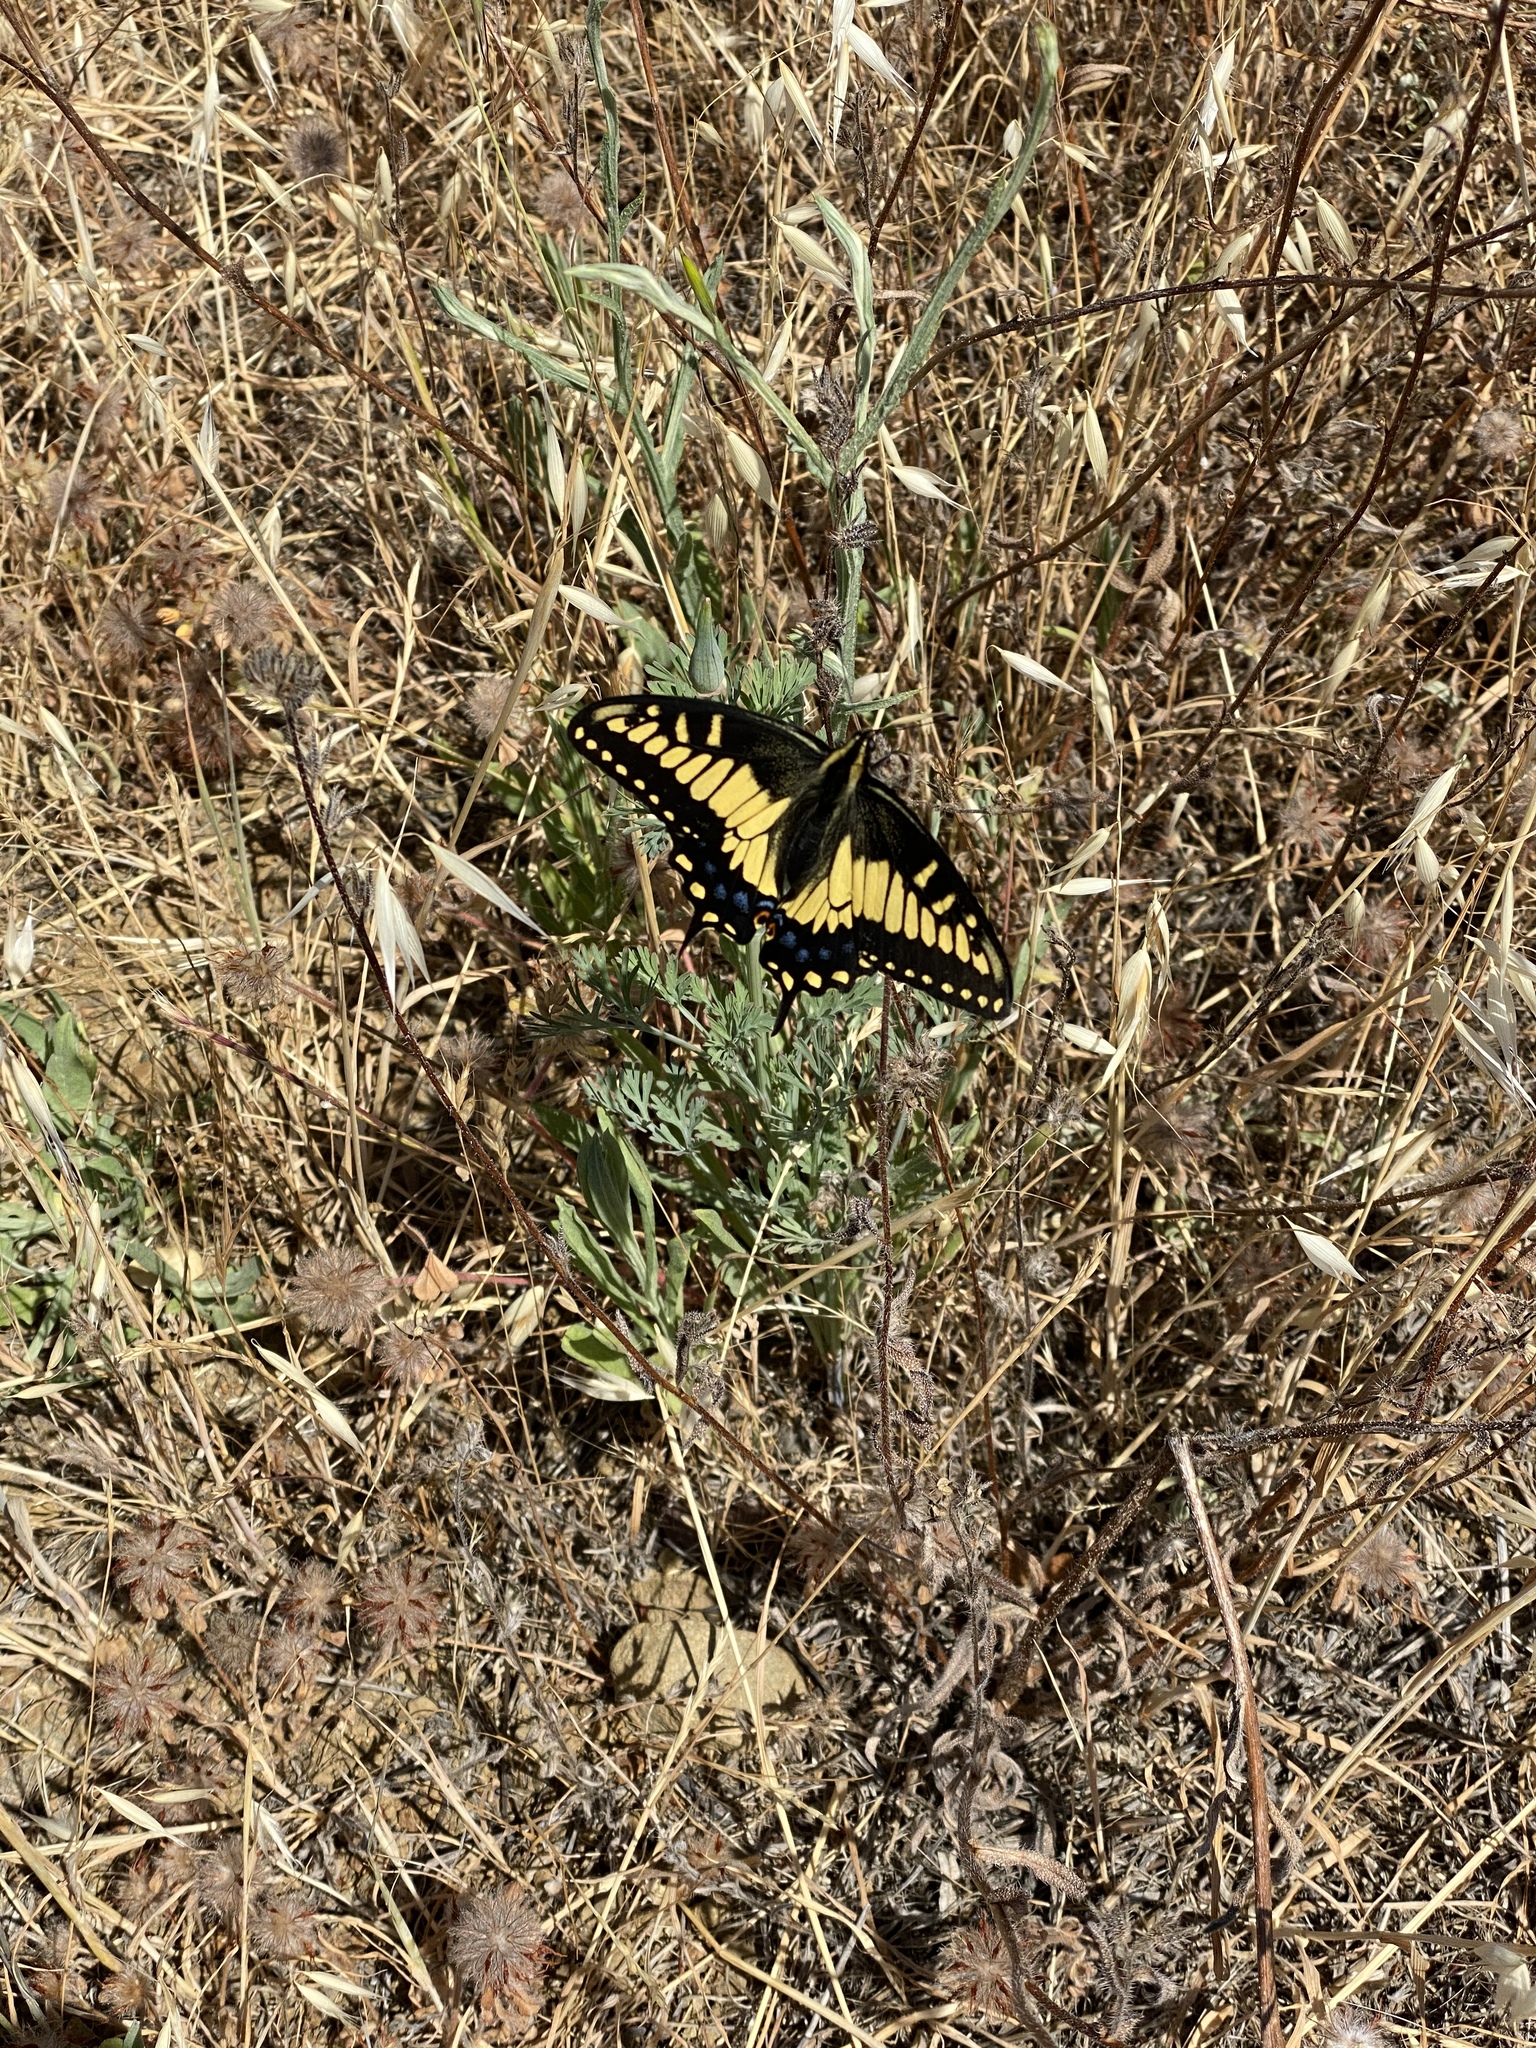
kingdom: Animalia
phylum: Arthropoda
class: Insecta
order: Lepidoptera
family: Papilionidae
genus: Papilio
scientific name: Papilio zelicaon
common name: Anise swallowtail
